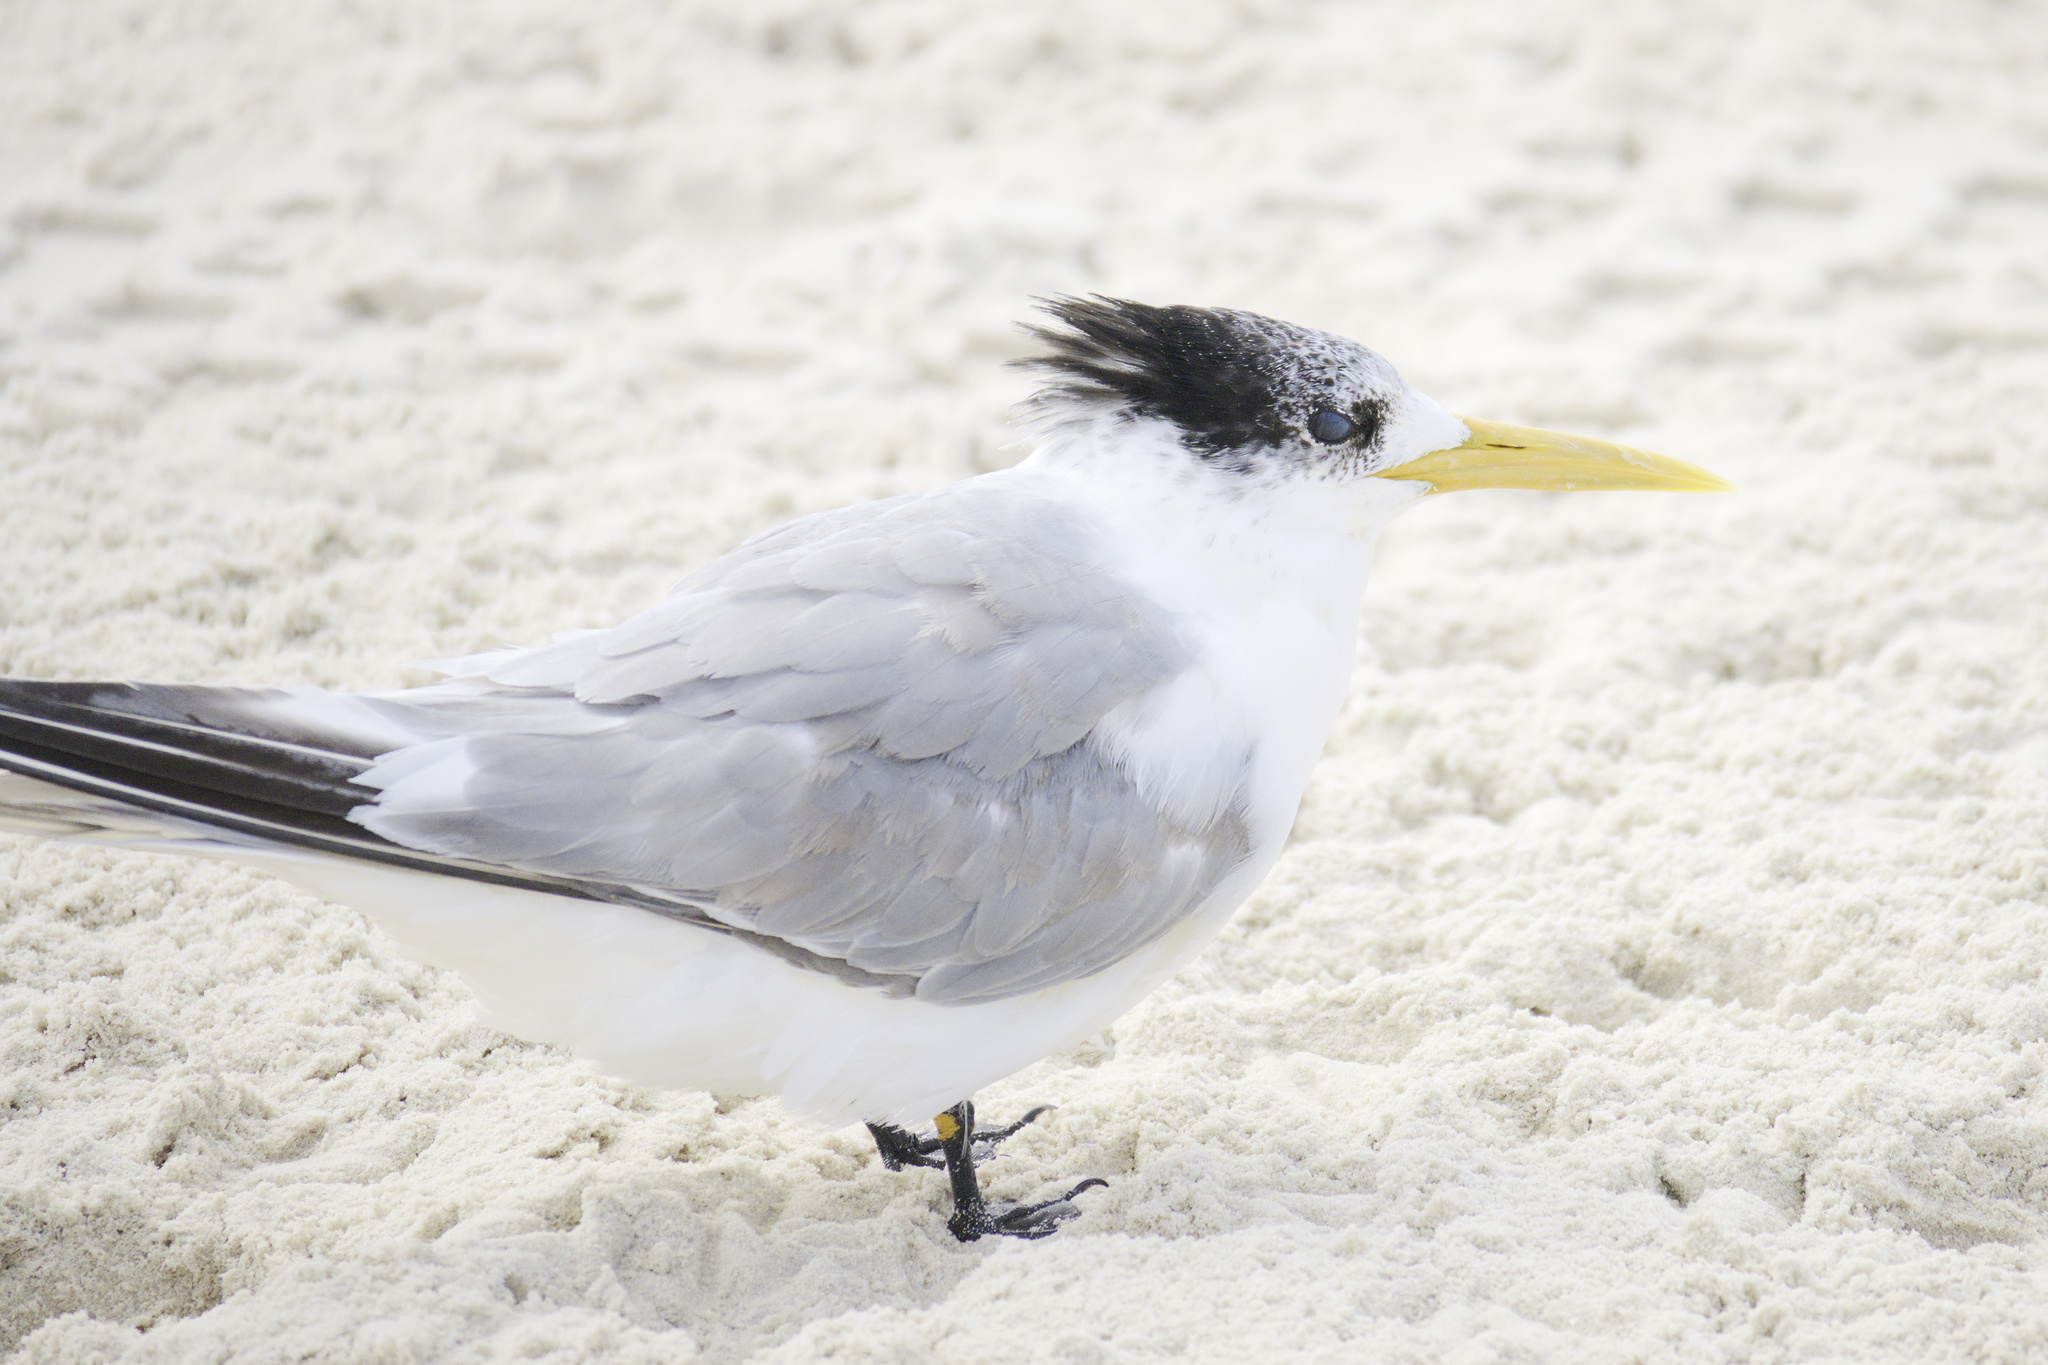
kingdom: Animalia
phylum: Chordata
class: Aves
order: Charadriiformes
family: Laridae
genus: Thalasseus
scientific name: Thalasseus bergii
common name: Greater crested tern
